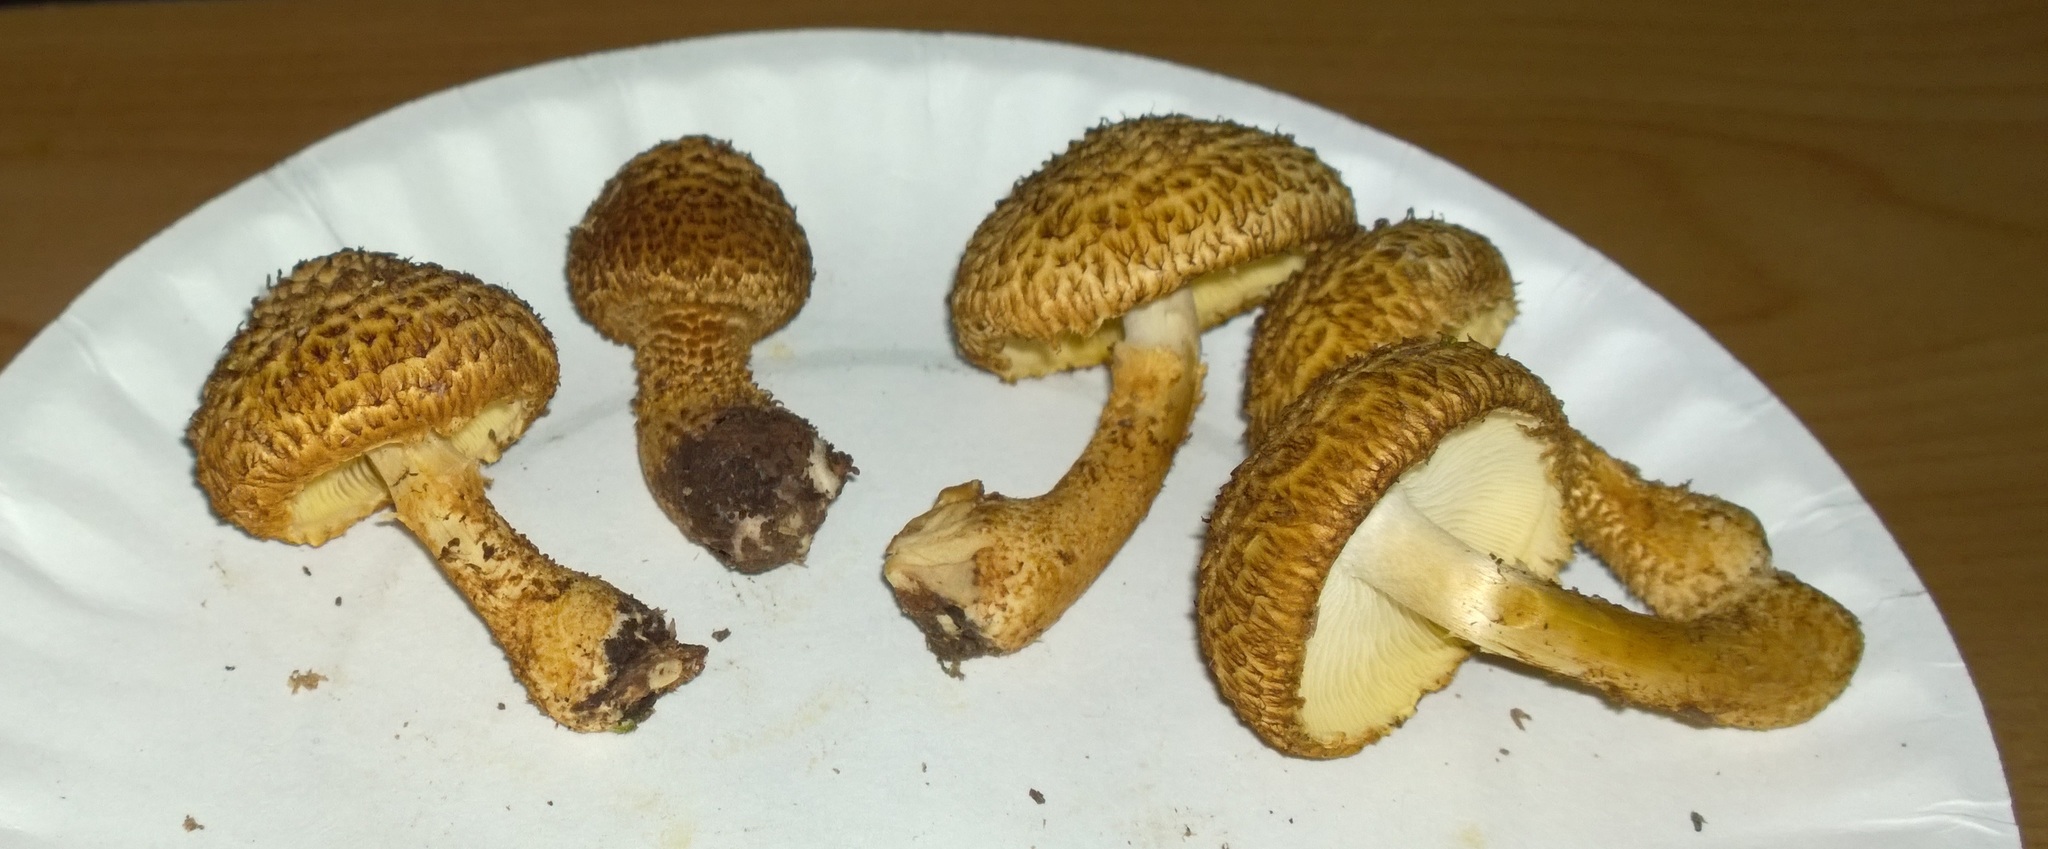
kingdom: Fungi
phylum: Basidiomycota
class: Agaricomycetes
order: Agaricales
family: Agaricaceae
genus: Leucopholiota
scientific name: Leucopholiota decorosa
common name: Decorated pholiota
